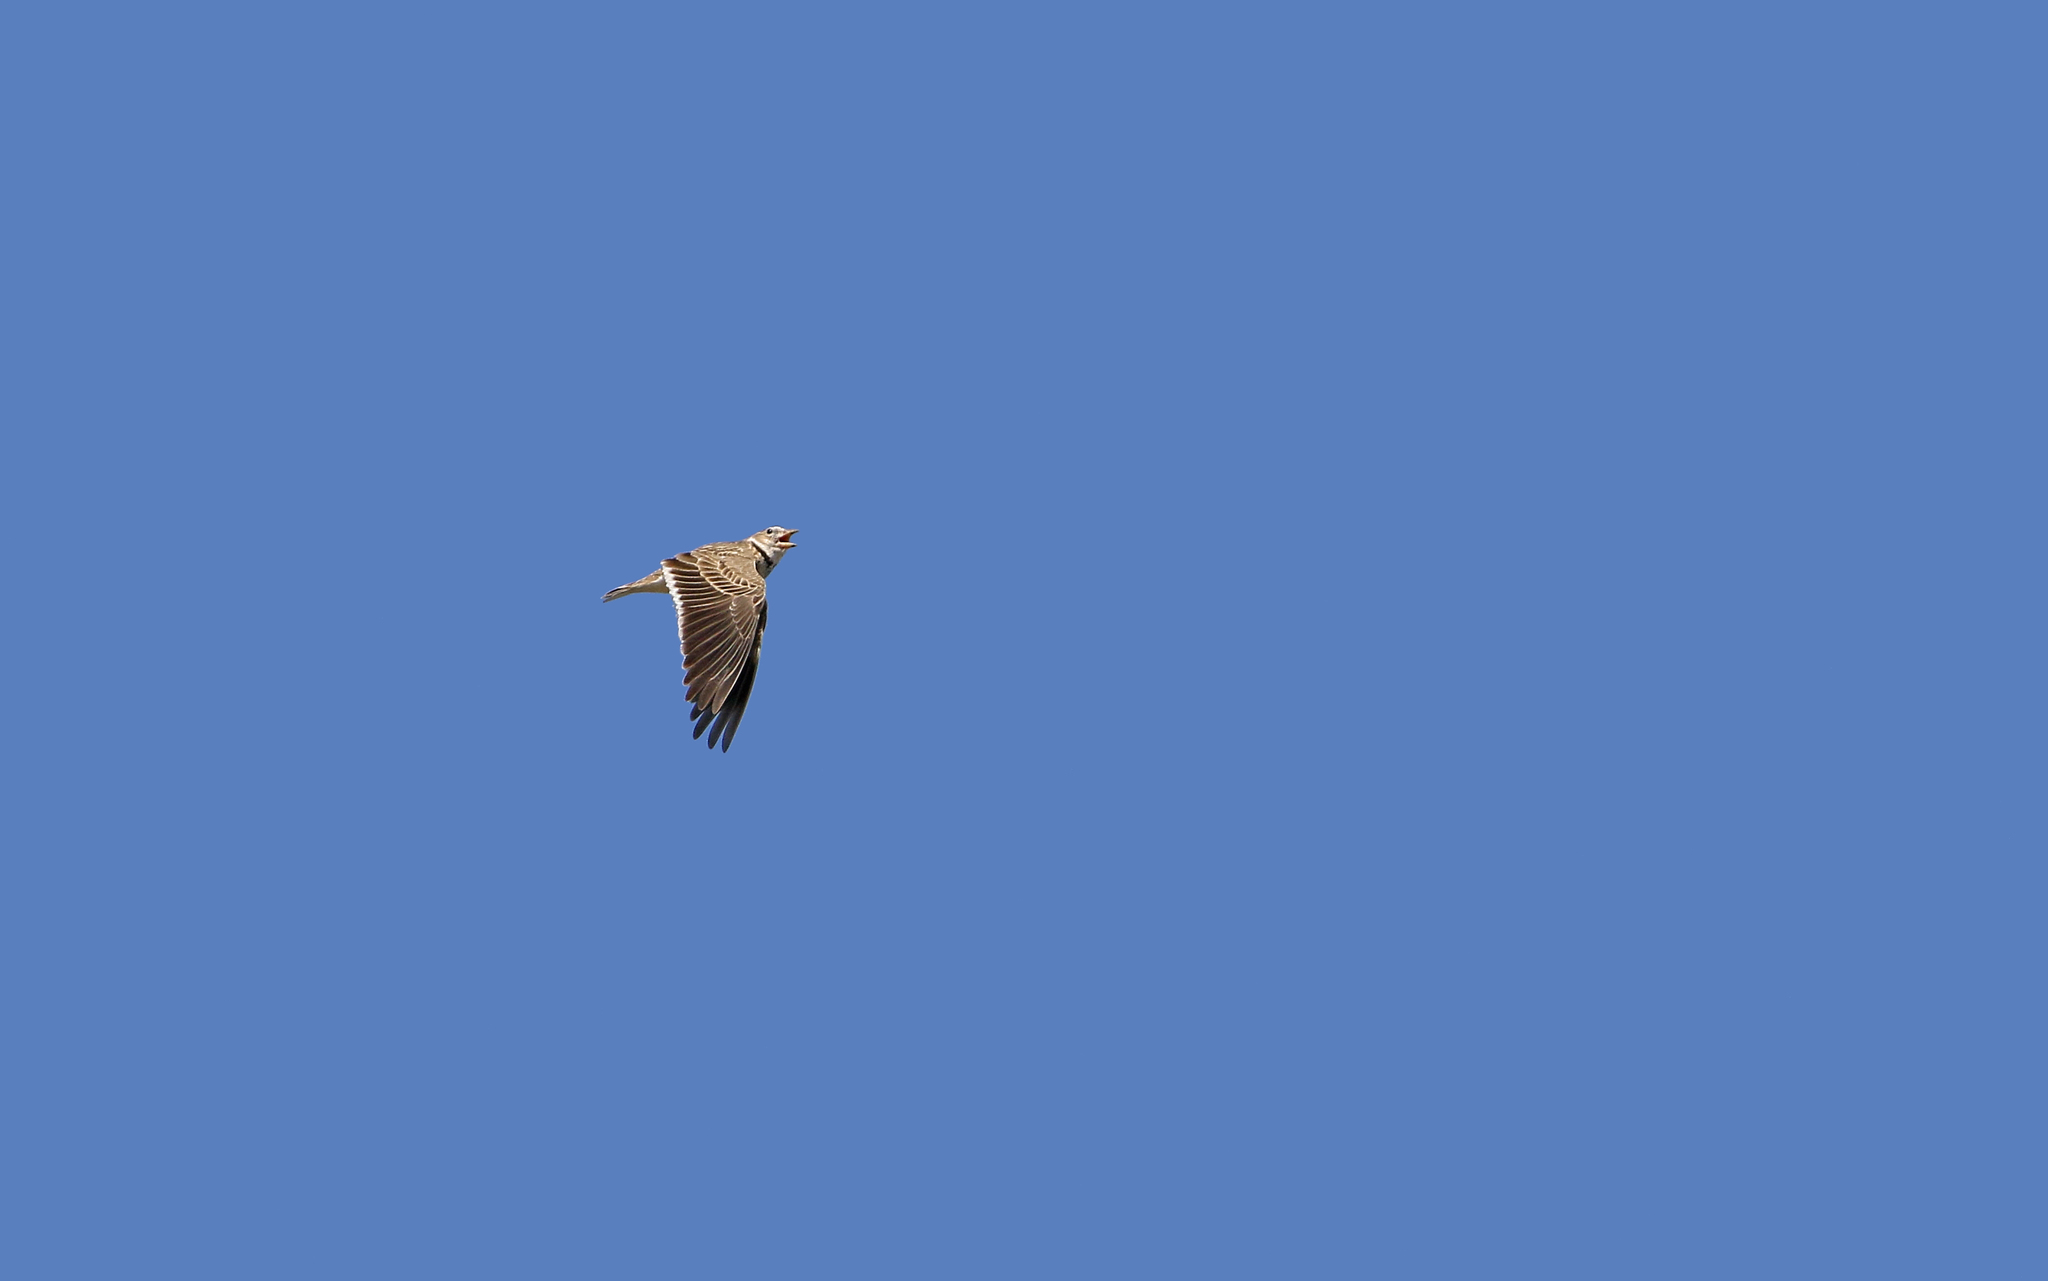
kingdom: Animalia
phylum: Chordata
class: Aves
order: Passeriformes
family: Alaudidae
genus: Melanocorypha
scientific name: Melanocorypha calandra
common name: Calandra lark
